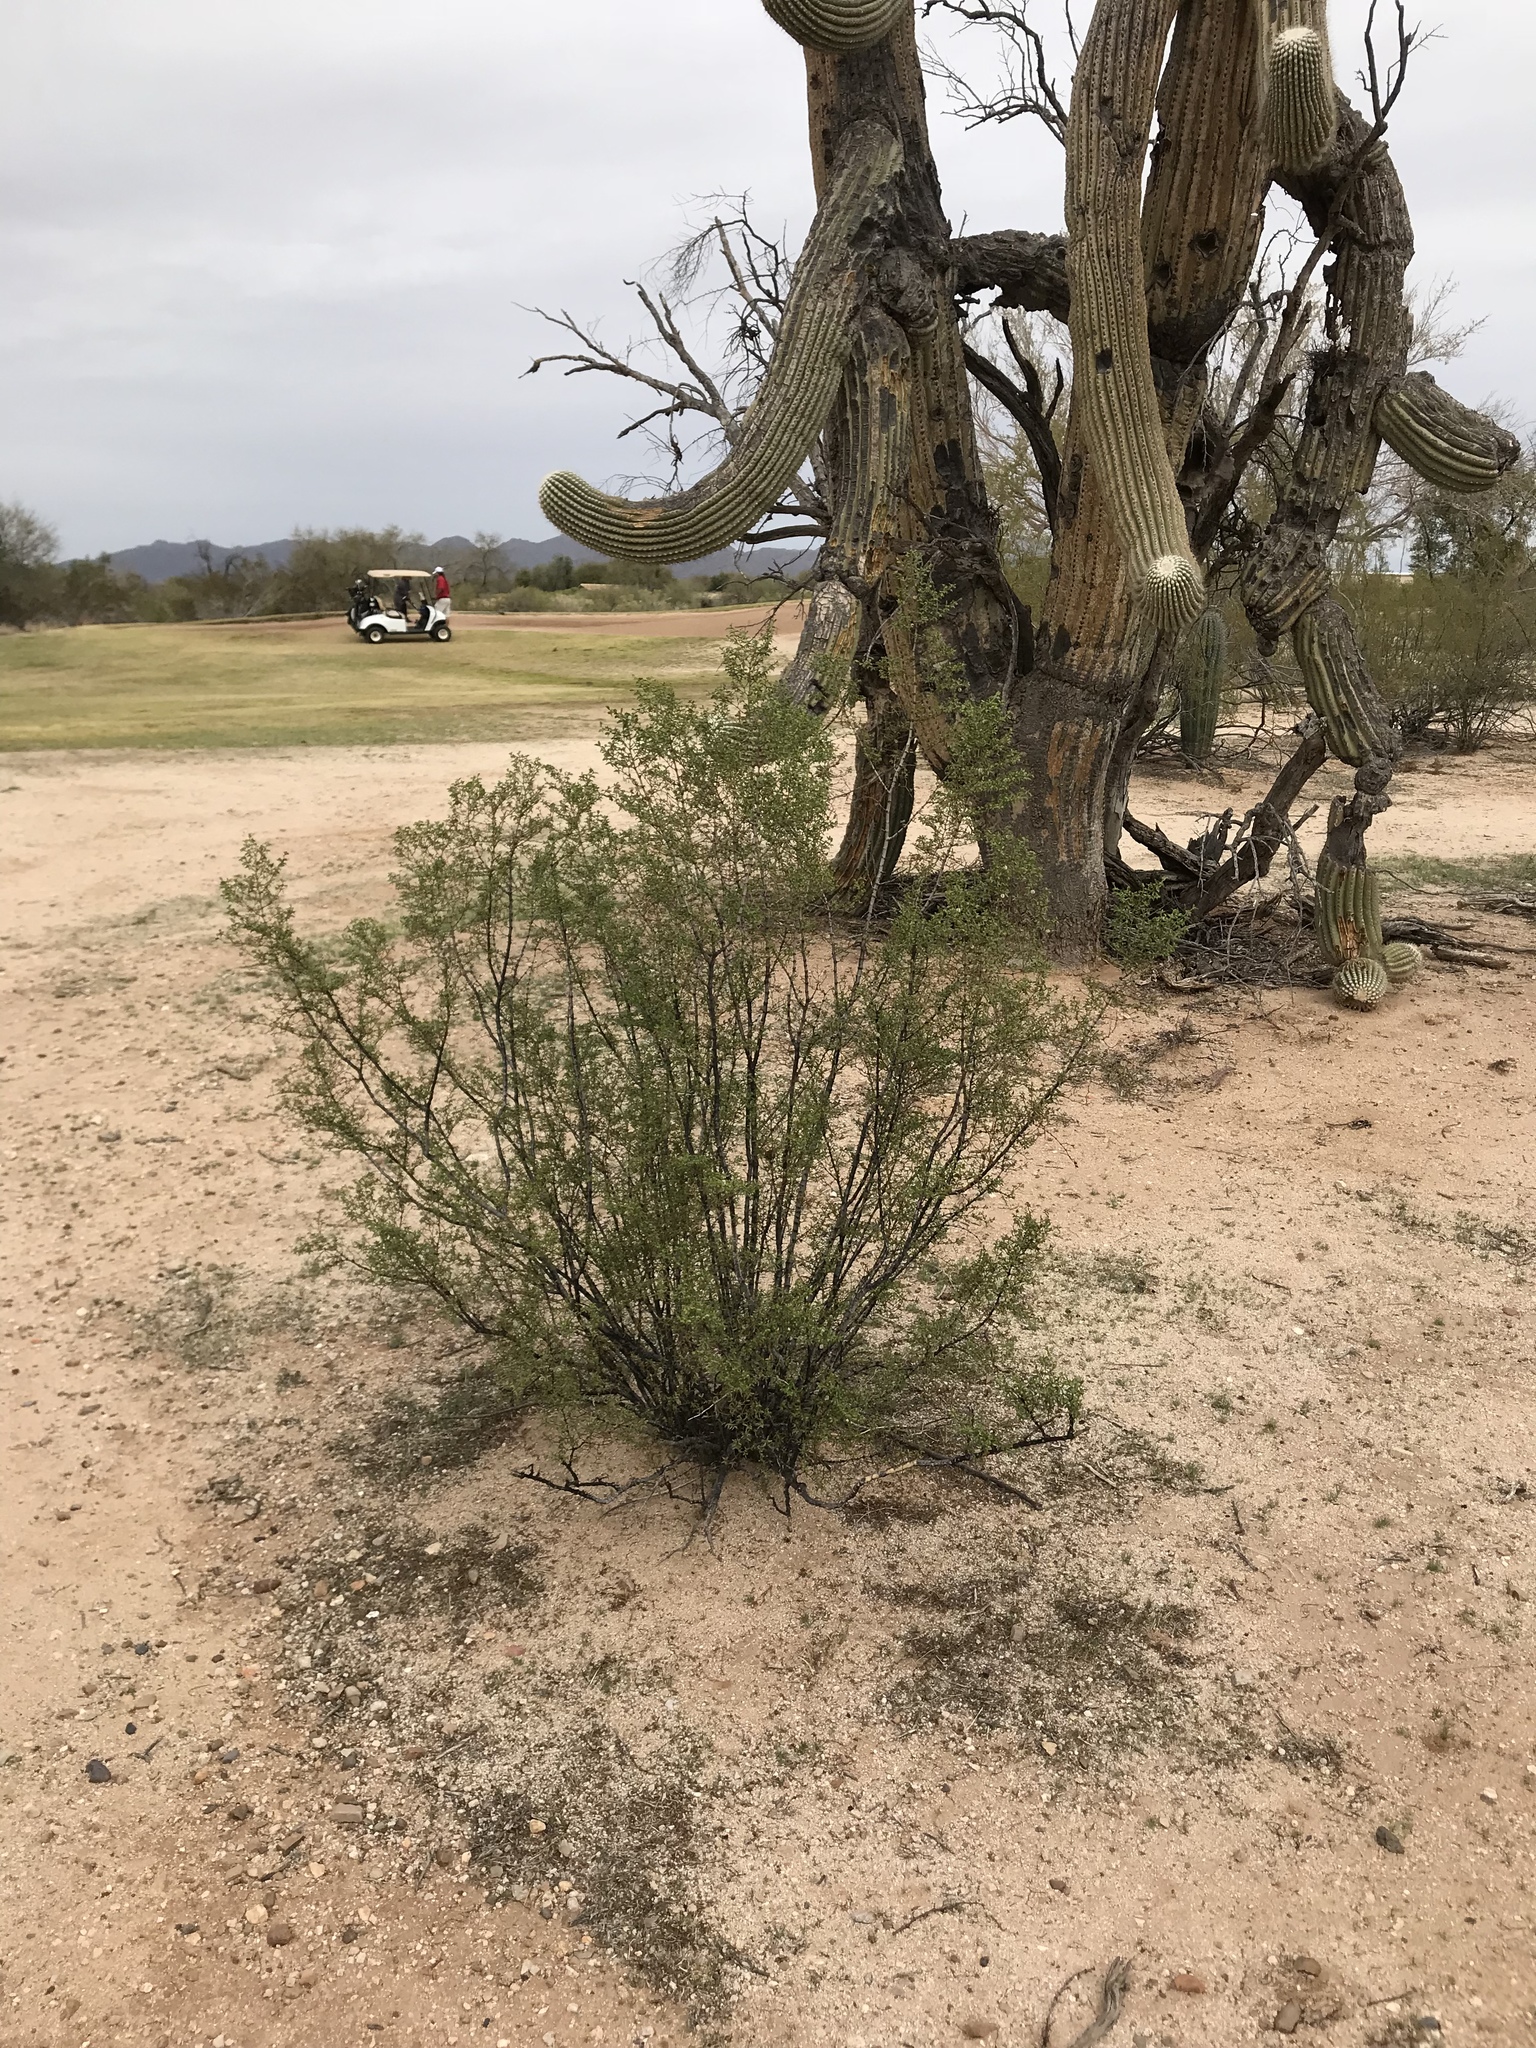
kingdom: Plantae
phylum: Tracheophyta
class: Magnoliopsida
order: Zygophyllales
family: Zygophyllaceae
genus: Larrea
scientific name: Larrea tridentata
